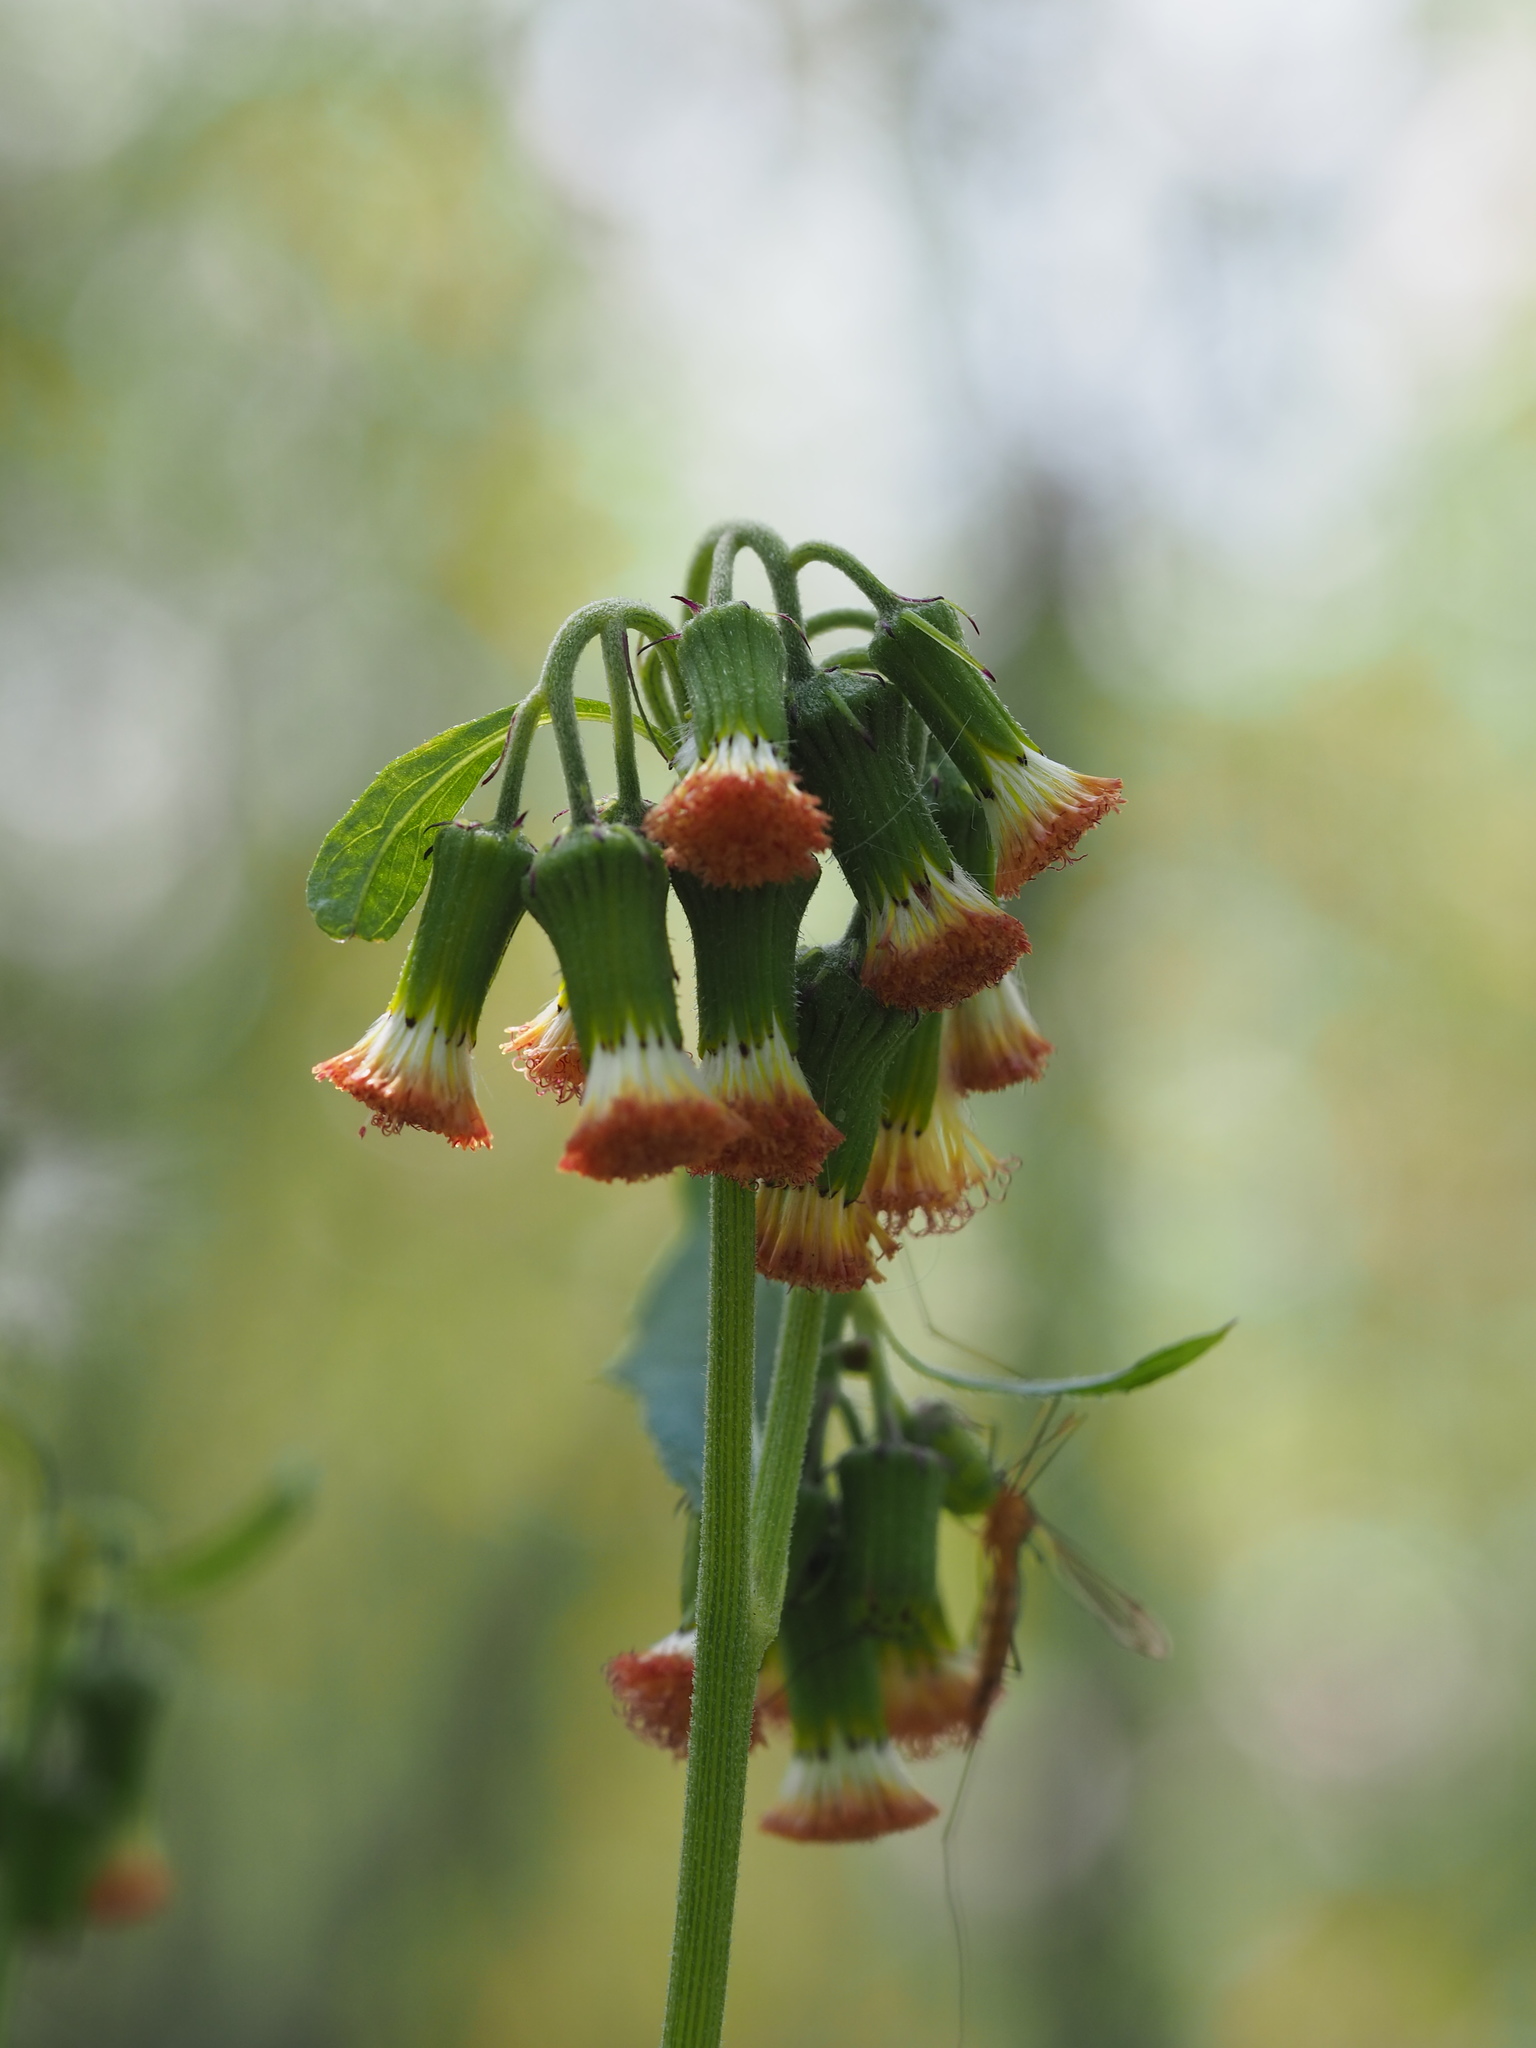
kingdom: Plantae
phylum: Tracheophyta
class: Magnoliopsida
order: Asterales
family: Asteraceae
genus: Crassocephalum
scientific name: Crassocephalum crepidioides
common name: Redflower ragleaf
